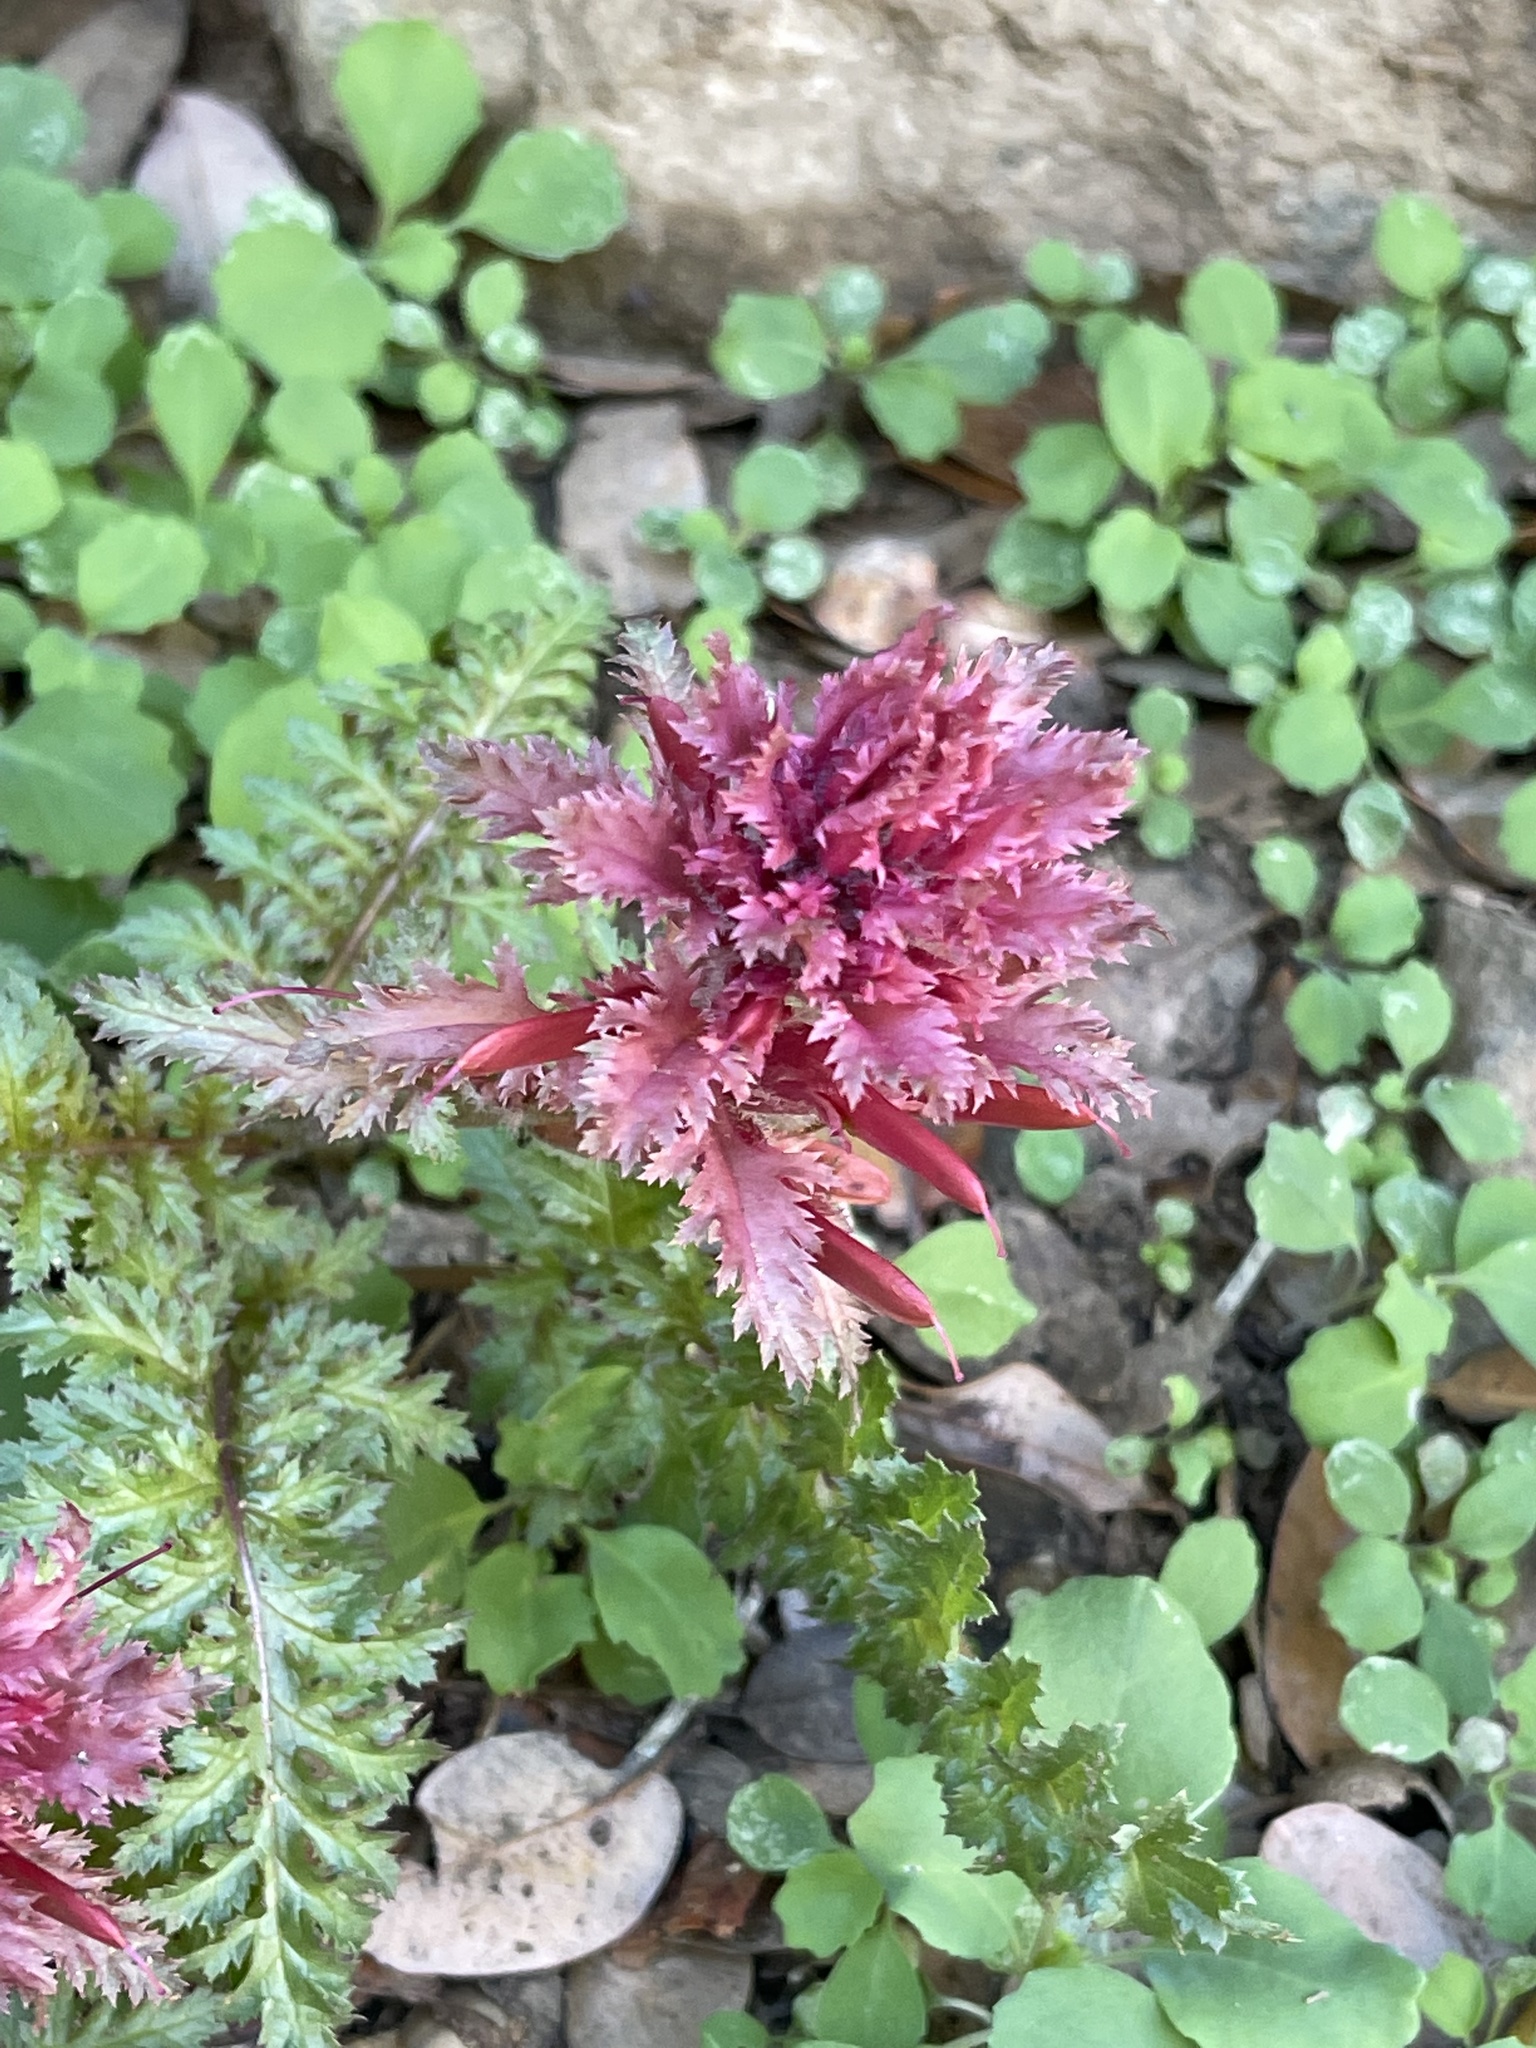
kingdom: Plantae
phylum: Tracheophyta
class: Magnoliopsida
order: Lamiales
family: Orobanchaceae
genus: Pedicularis
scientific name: Pedicularis densiflora
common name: Indian warrior
